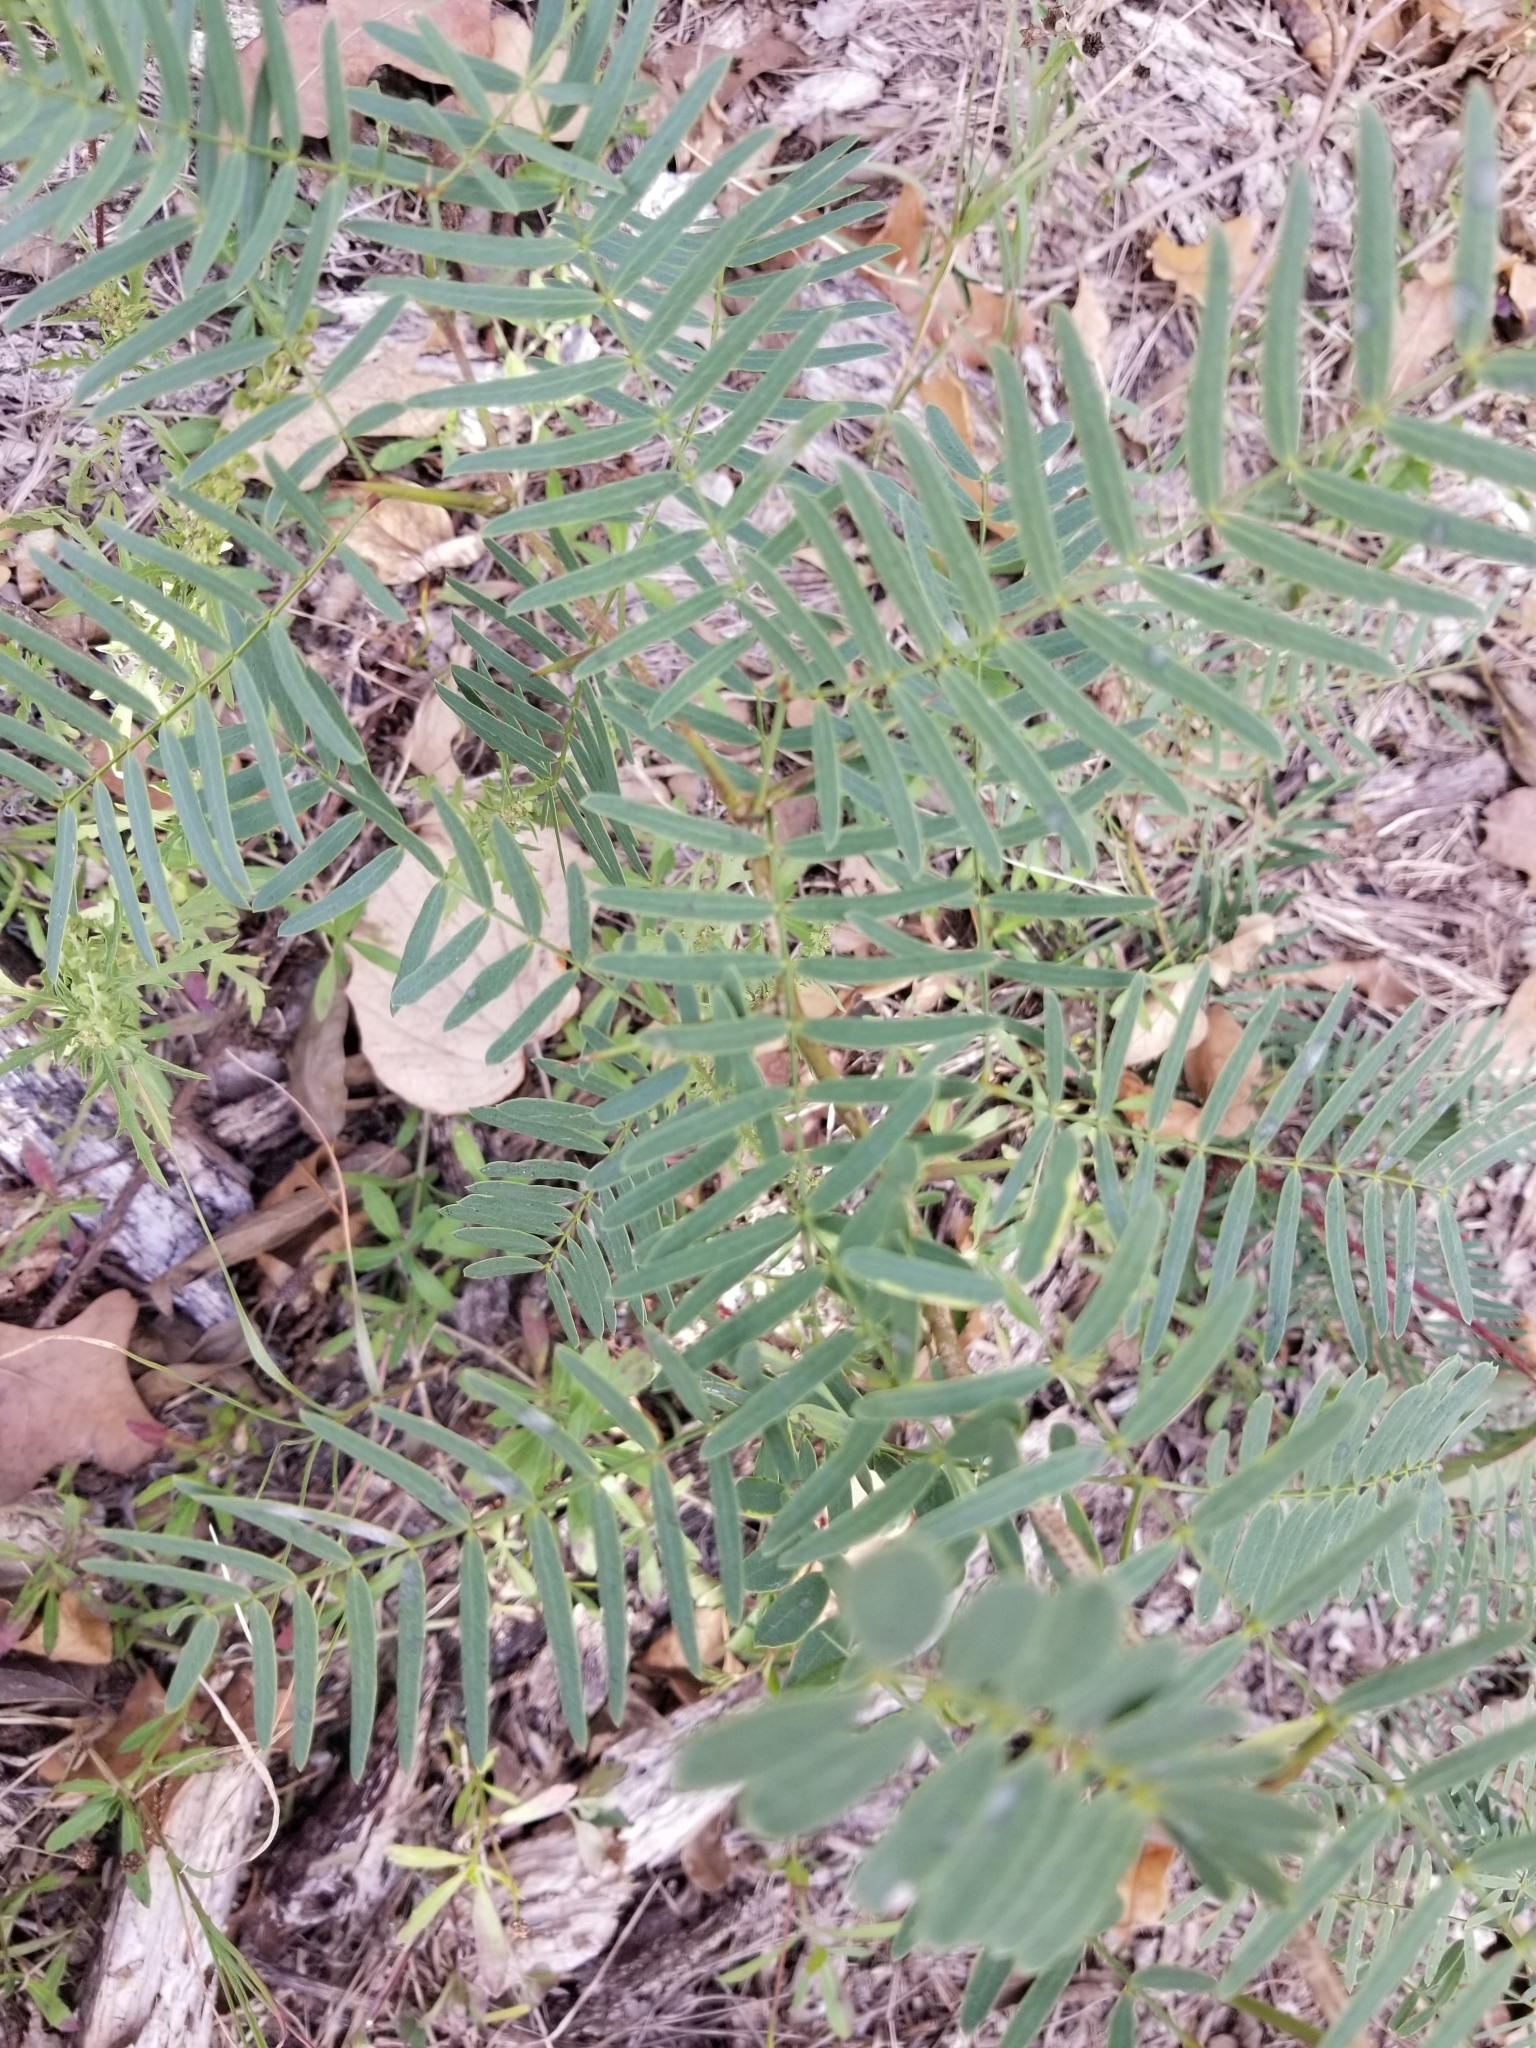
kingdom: Plantae
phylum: Tracheophyta
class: Magnoliopsida
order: Fabales
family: Fabaceae
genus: Prosopis
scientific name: Prosopis glandulosa
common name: Honey mesquite
